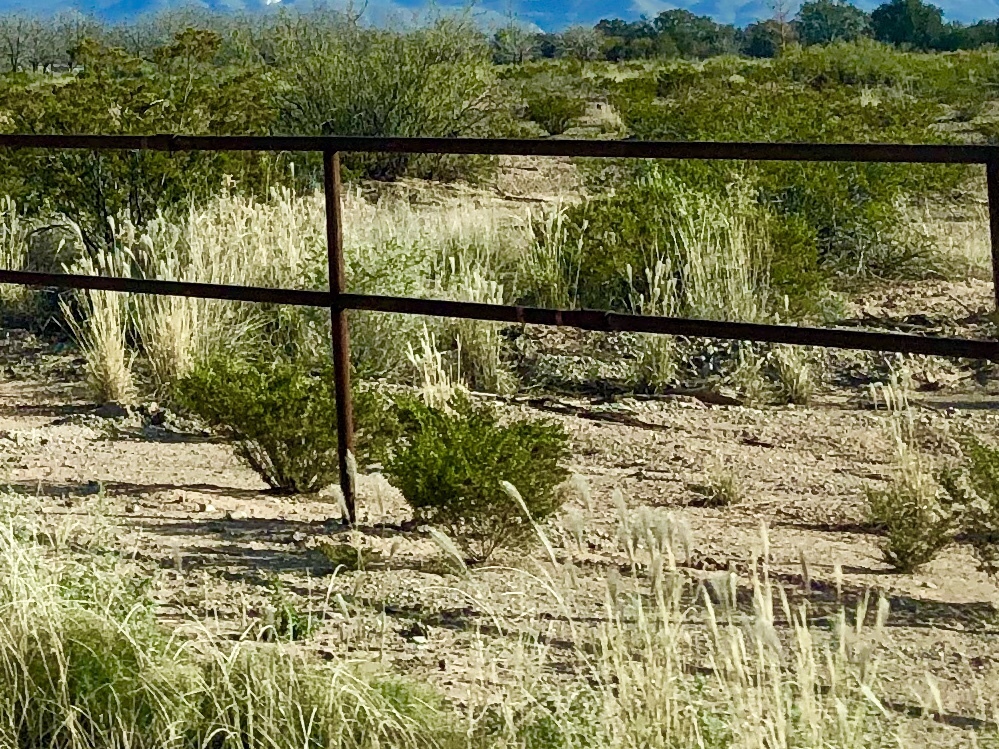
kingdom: Plantae
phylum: Tracheophyta
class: Magnoliopsida
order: Zygophyllales
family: Zygophyllaceae
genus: Larrea
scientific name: Larrea tridentata
